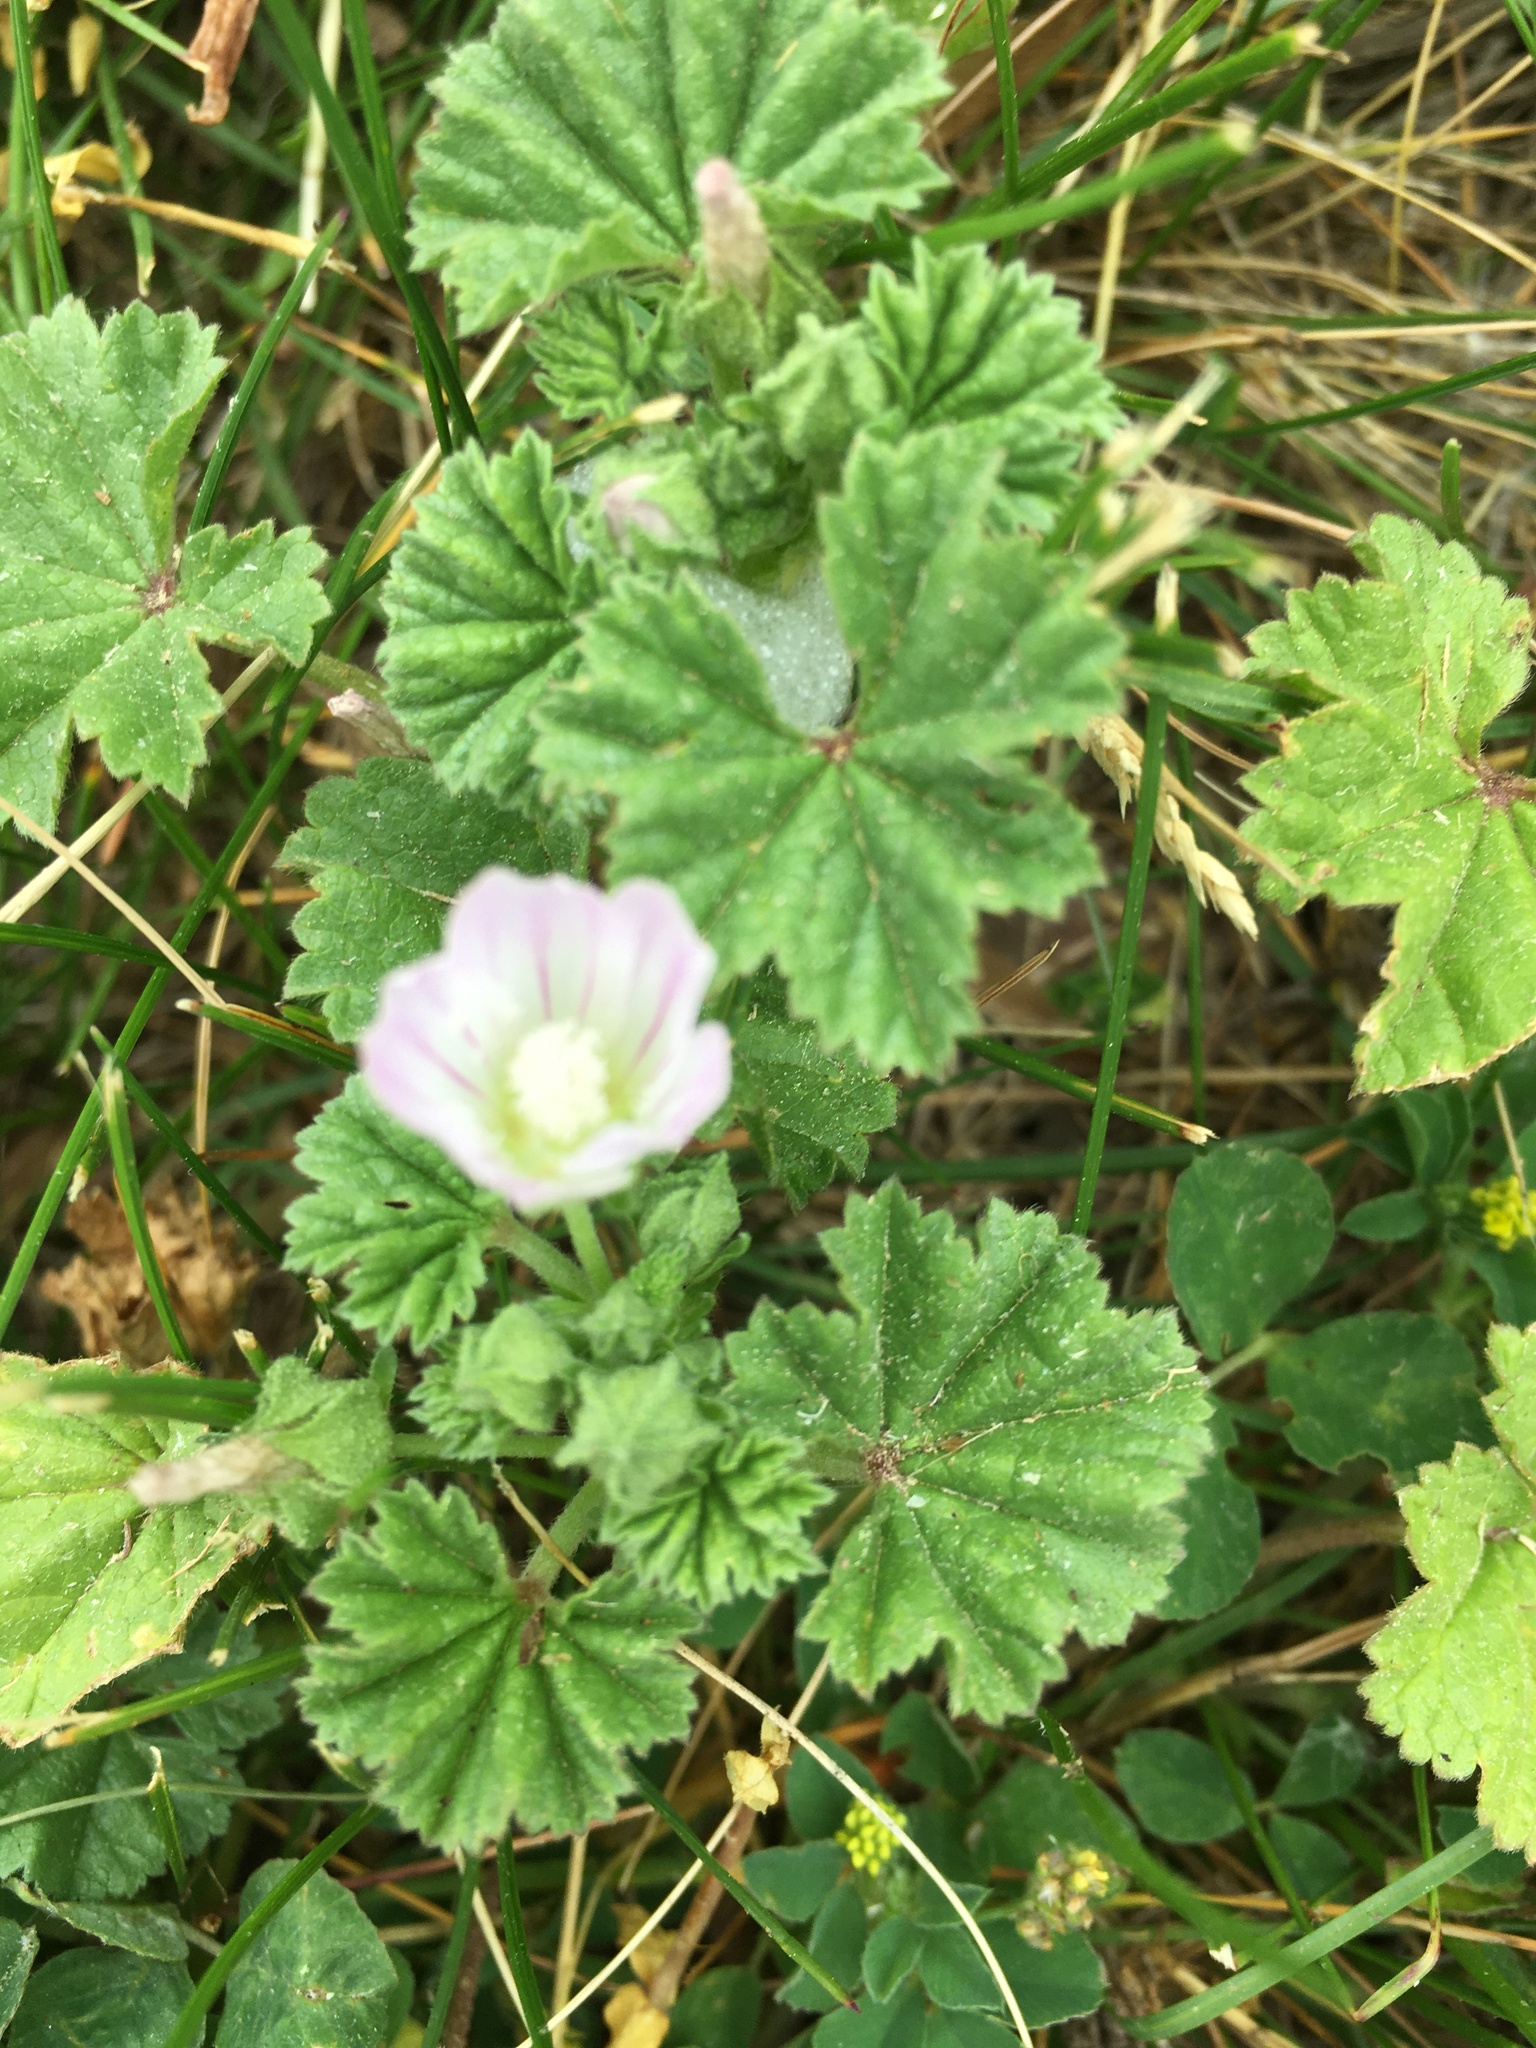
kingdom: Plantae
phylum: Tracheophyta
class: Magnoliopsida
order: Malvales
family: Malvaceae
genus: Malva
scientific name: Malva neglecta
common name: Common mallow
